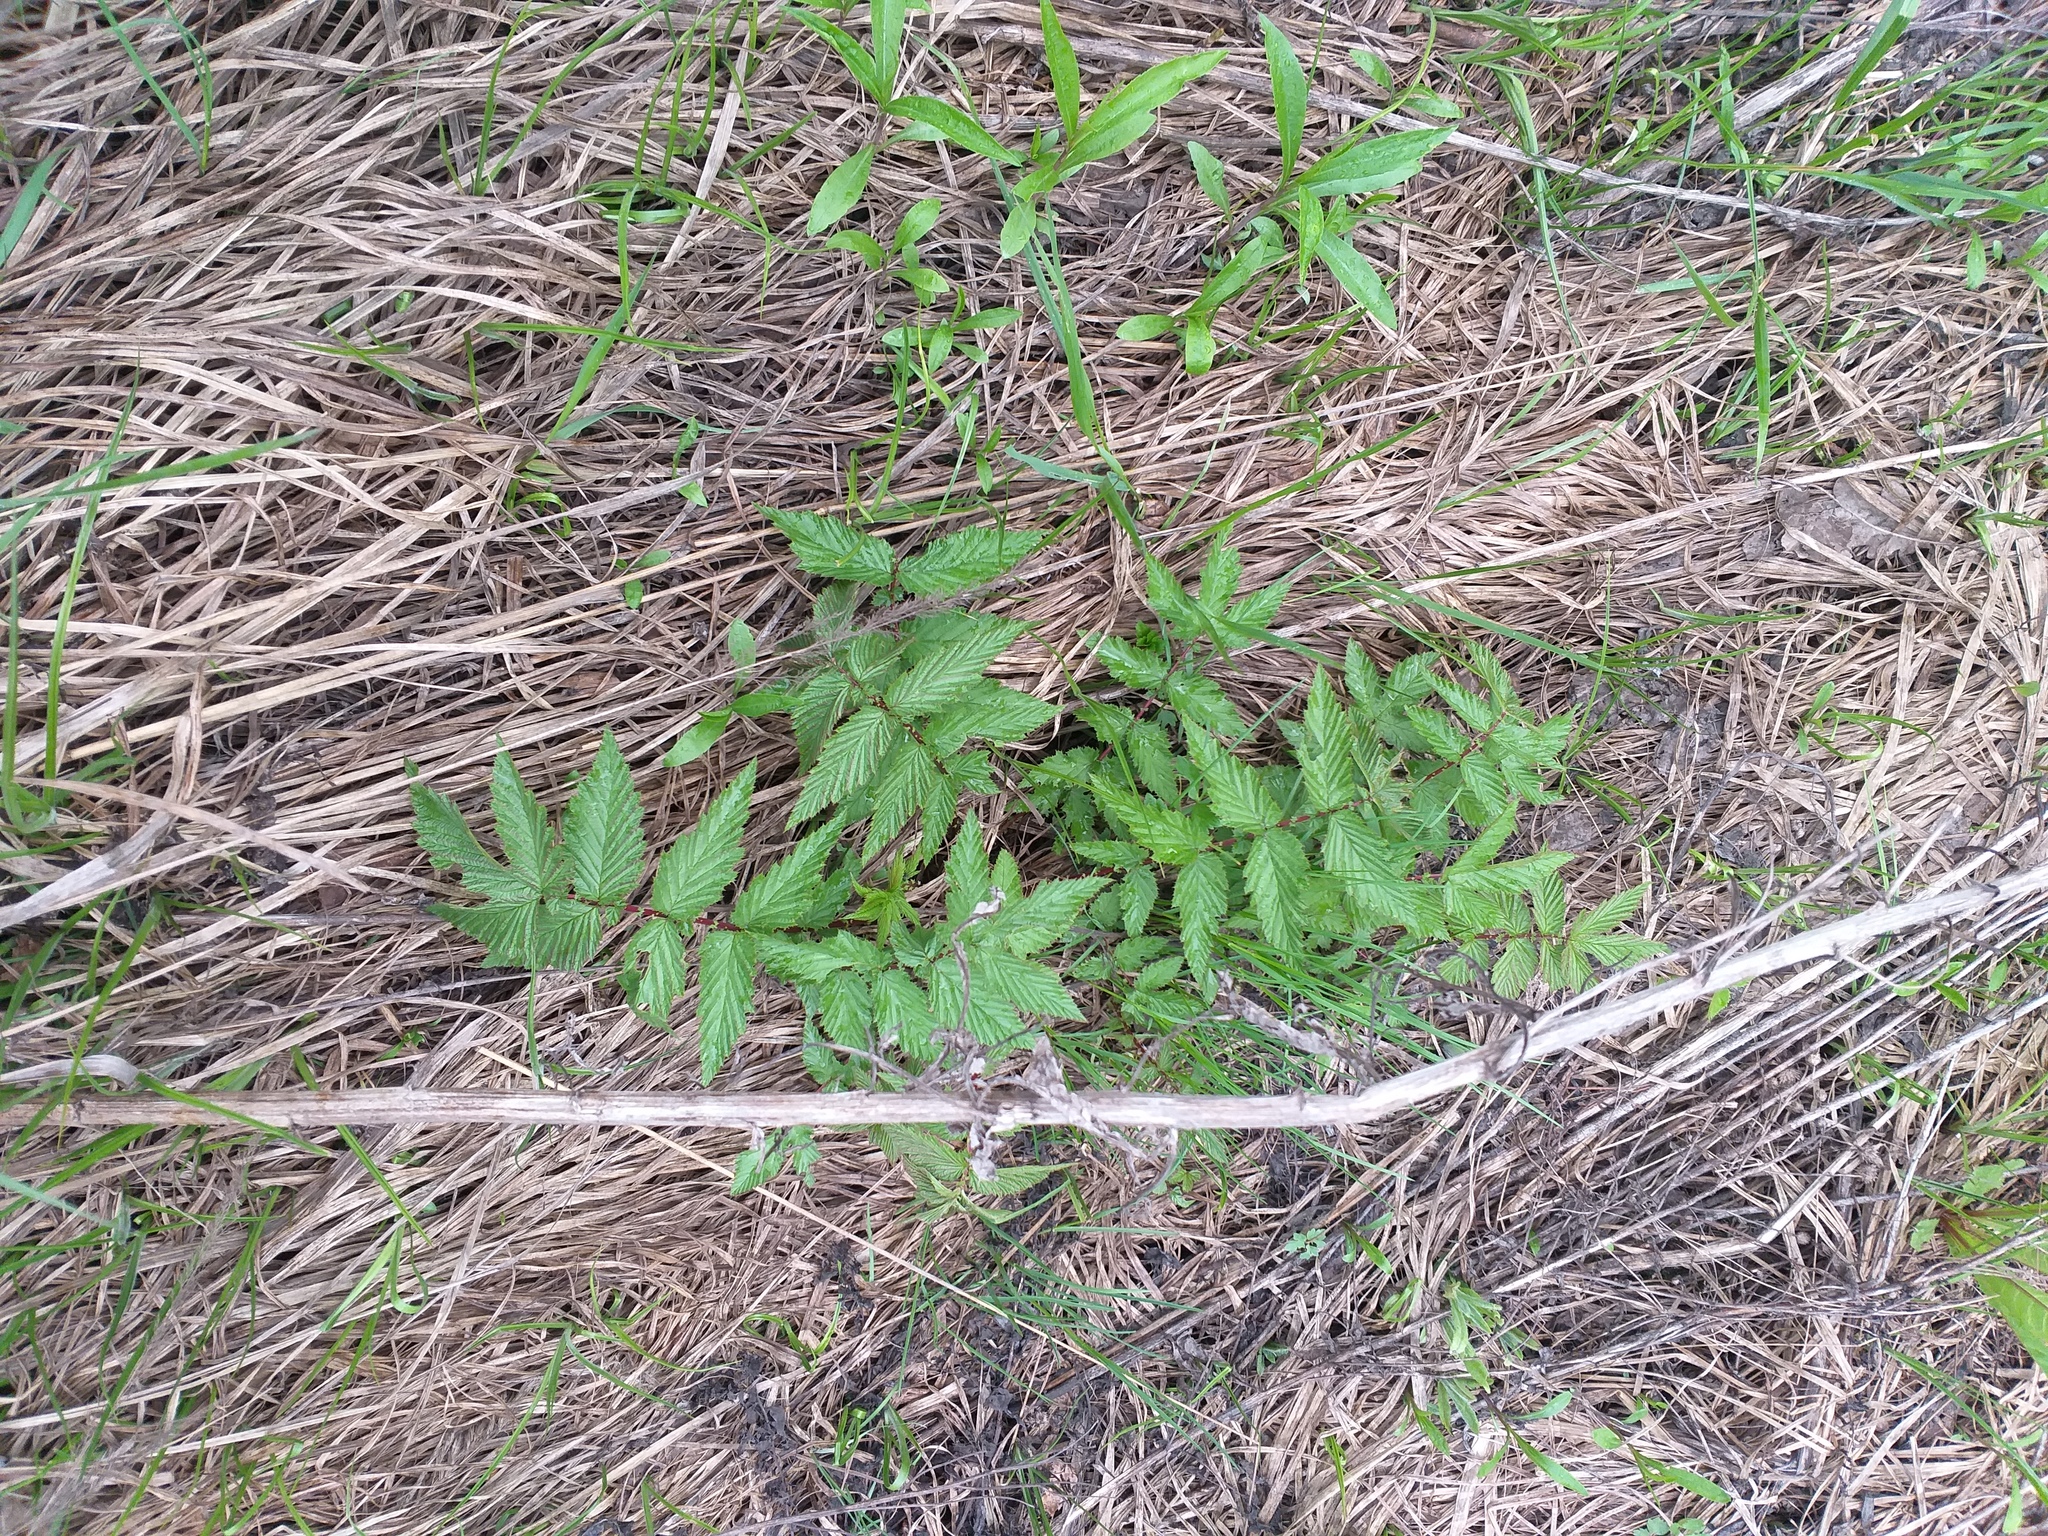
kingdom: Plantae
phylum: Tracheophyta
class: Magnoliopsida
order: Rosales
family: Rosaceae
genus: Filipendula
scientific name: Filipendula ulmaria
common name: Meadowsweet
